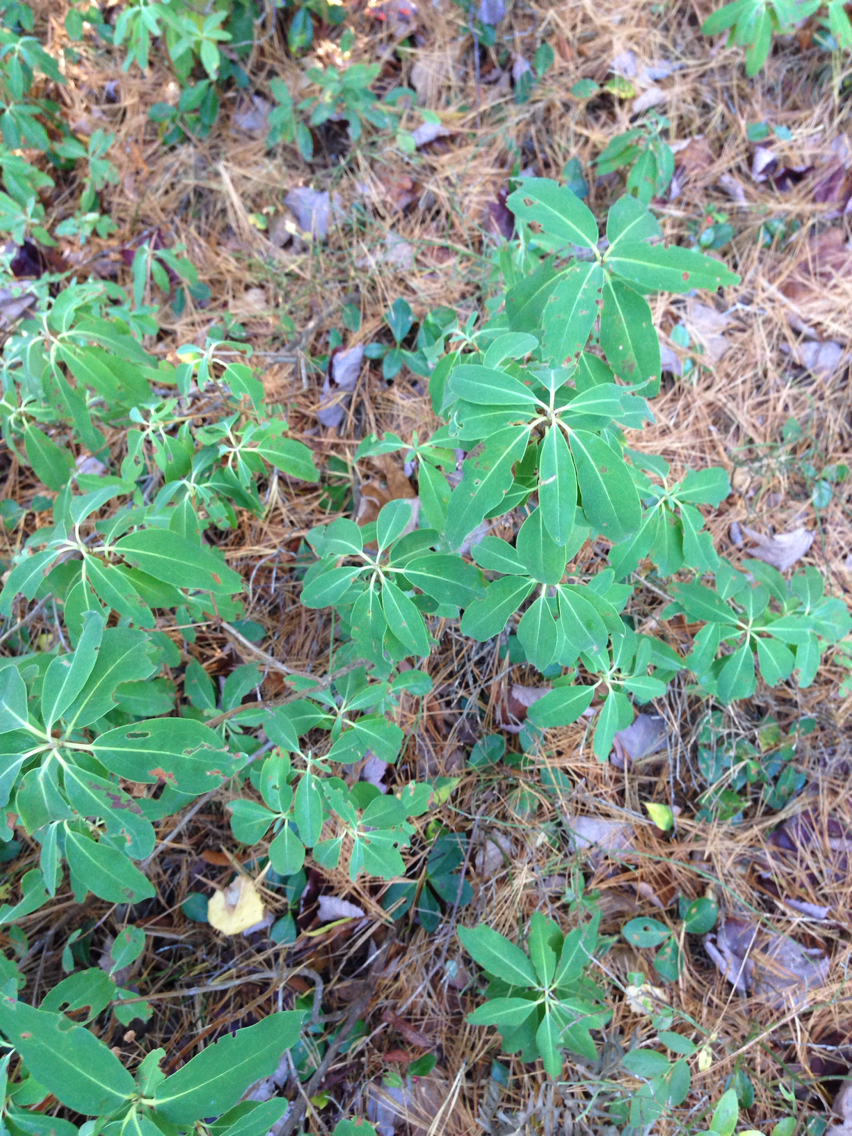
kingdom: Plantae
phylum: Tracheophyta
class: Magnoliopsida
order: Ericales
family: Ericaceae
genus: Kalmia
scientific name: Kalmia angustifolia
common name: Sheep-laurel
